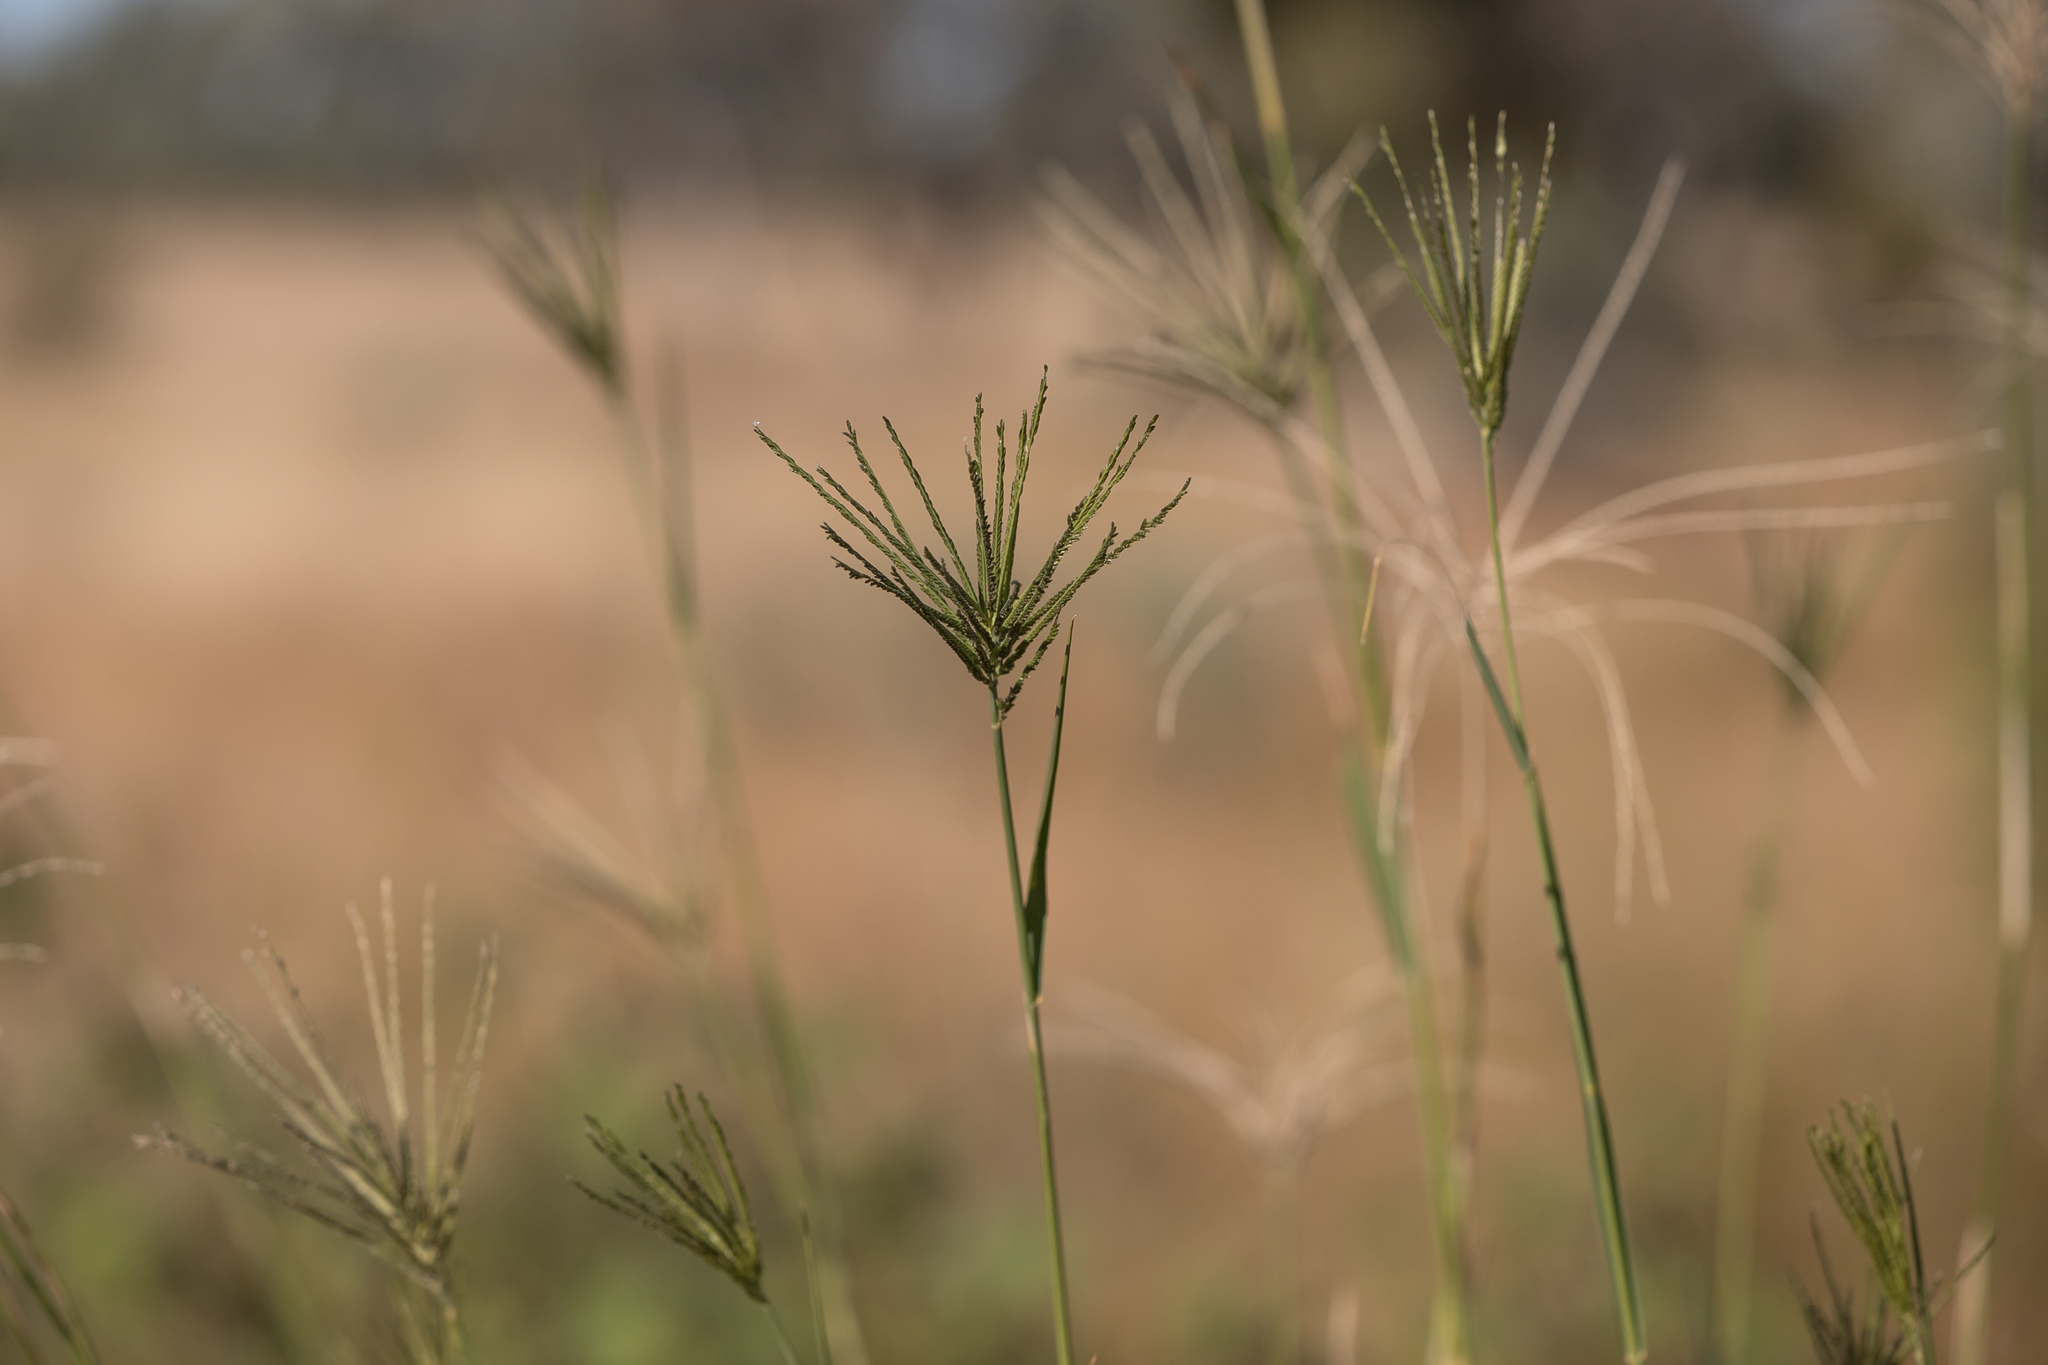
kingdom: Plantae
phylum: Tracheophyta
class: Liliopsida
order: Poales
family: Poaceae
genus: Leptochloa
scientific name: Leptochloa digitata
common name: Finger sprangletop
